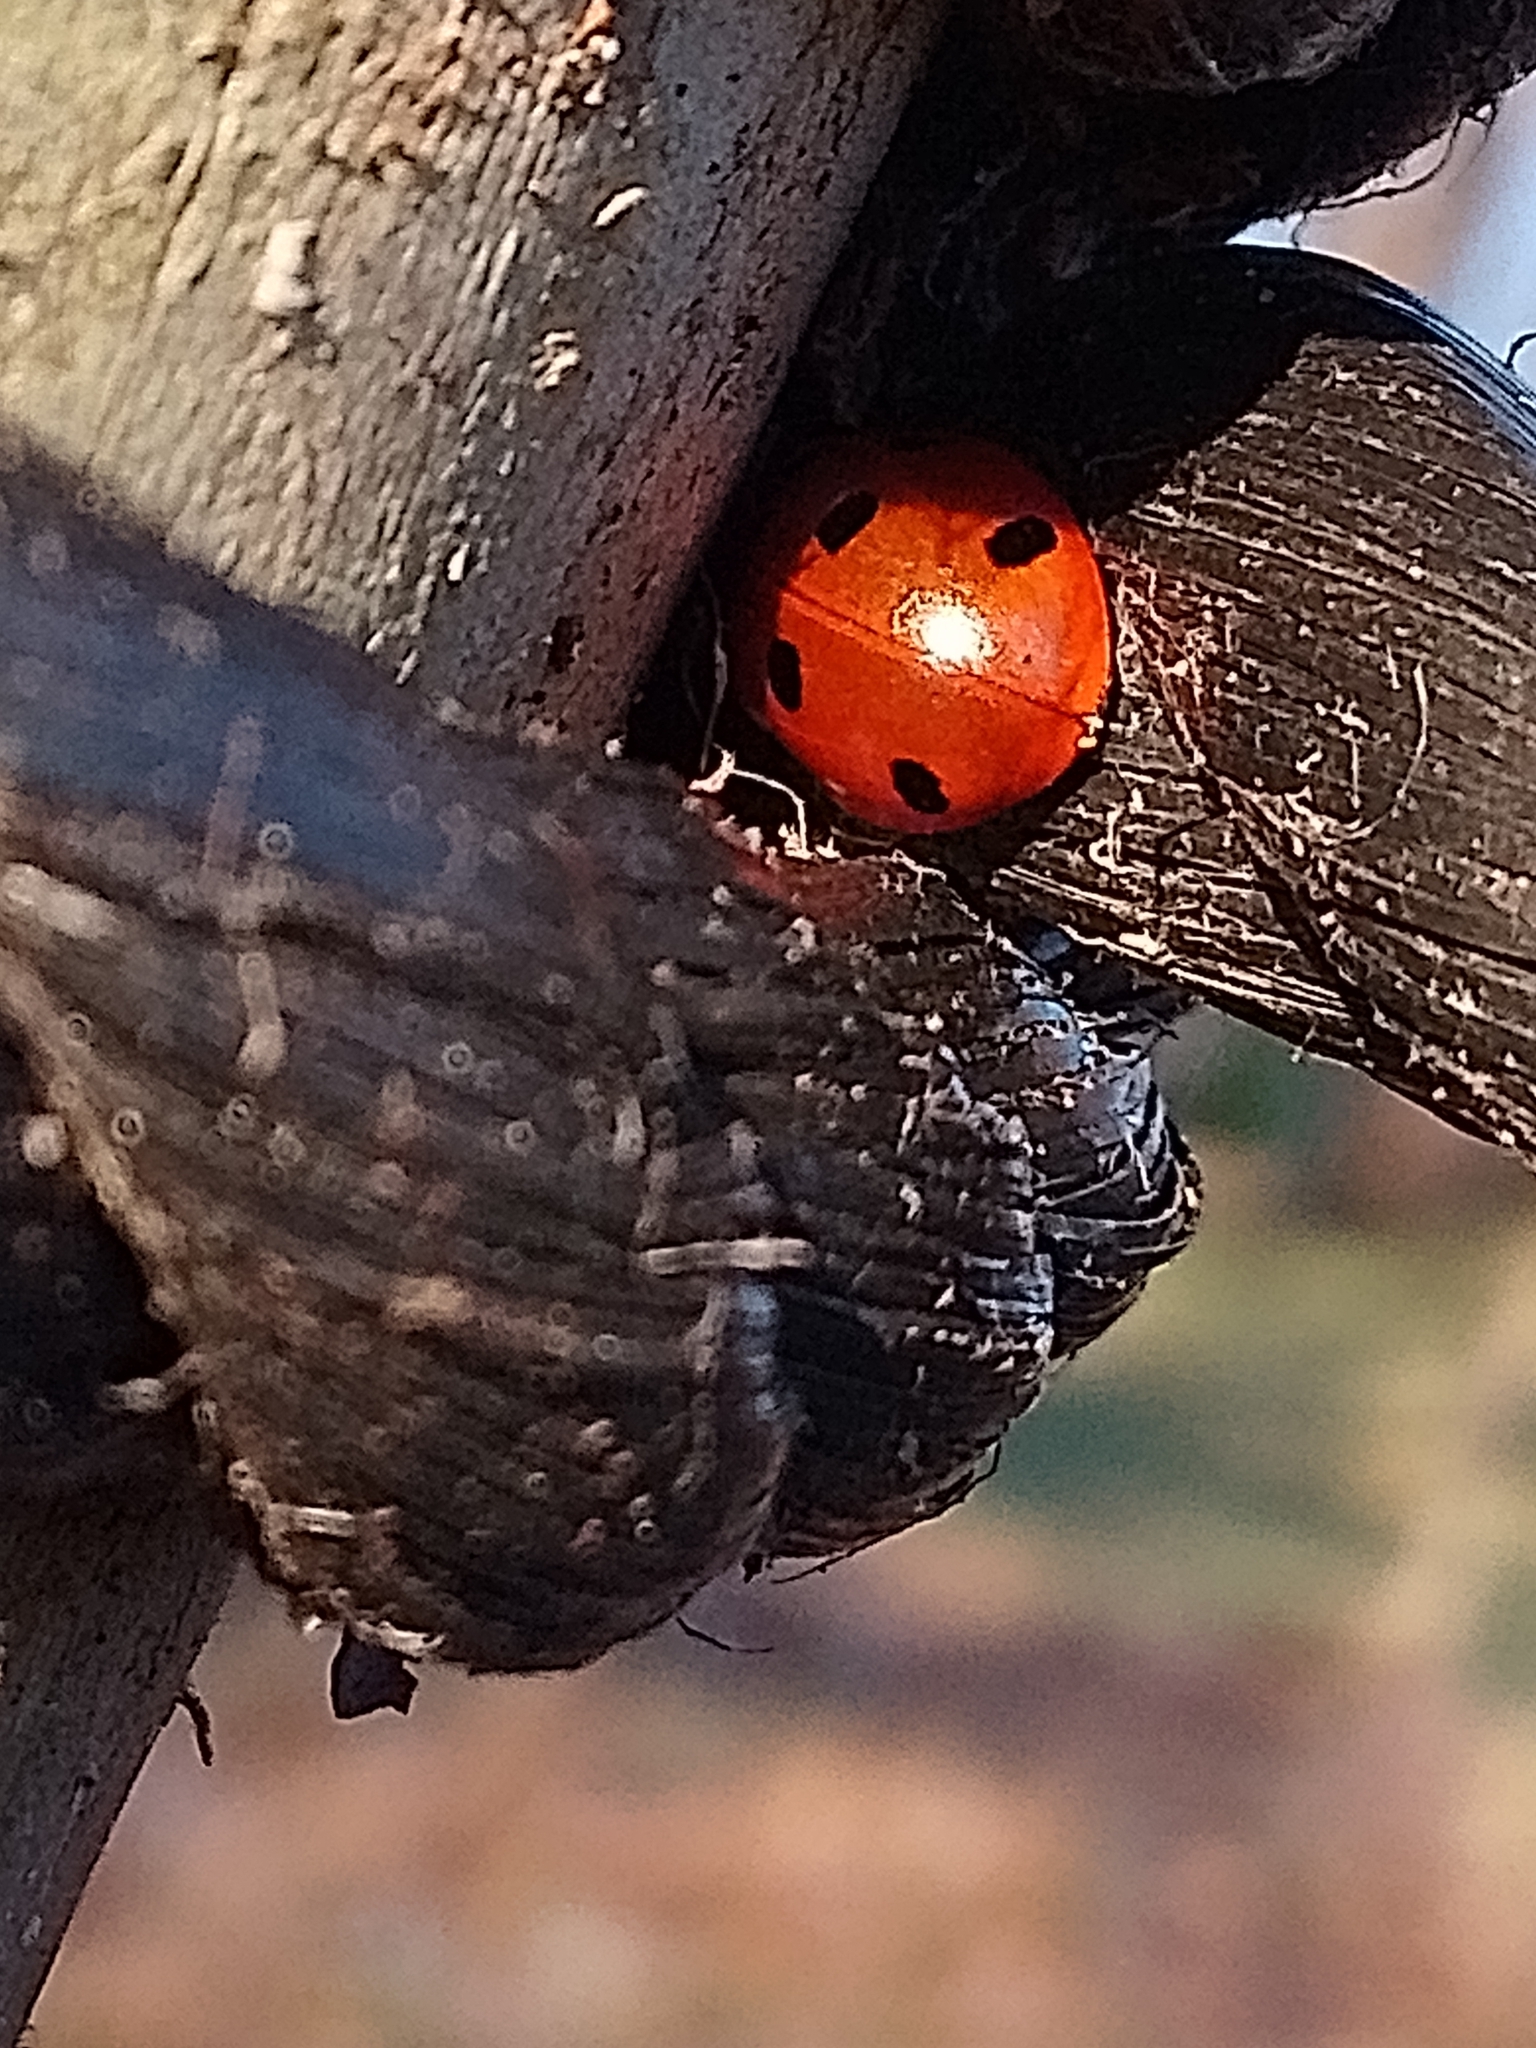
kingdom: Animalia
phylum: Arthropoda
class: Insecta
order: Coleoptera
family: Coccinellidae
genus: Coccinella
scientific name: Coccinella septempunctata
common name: Sevenspotted lady beetle
